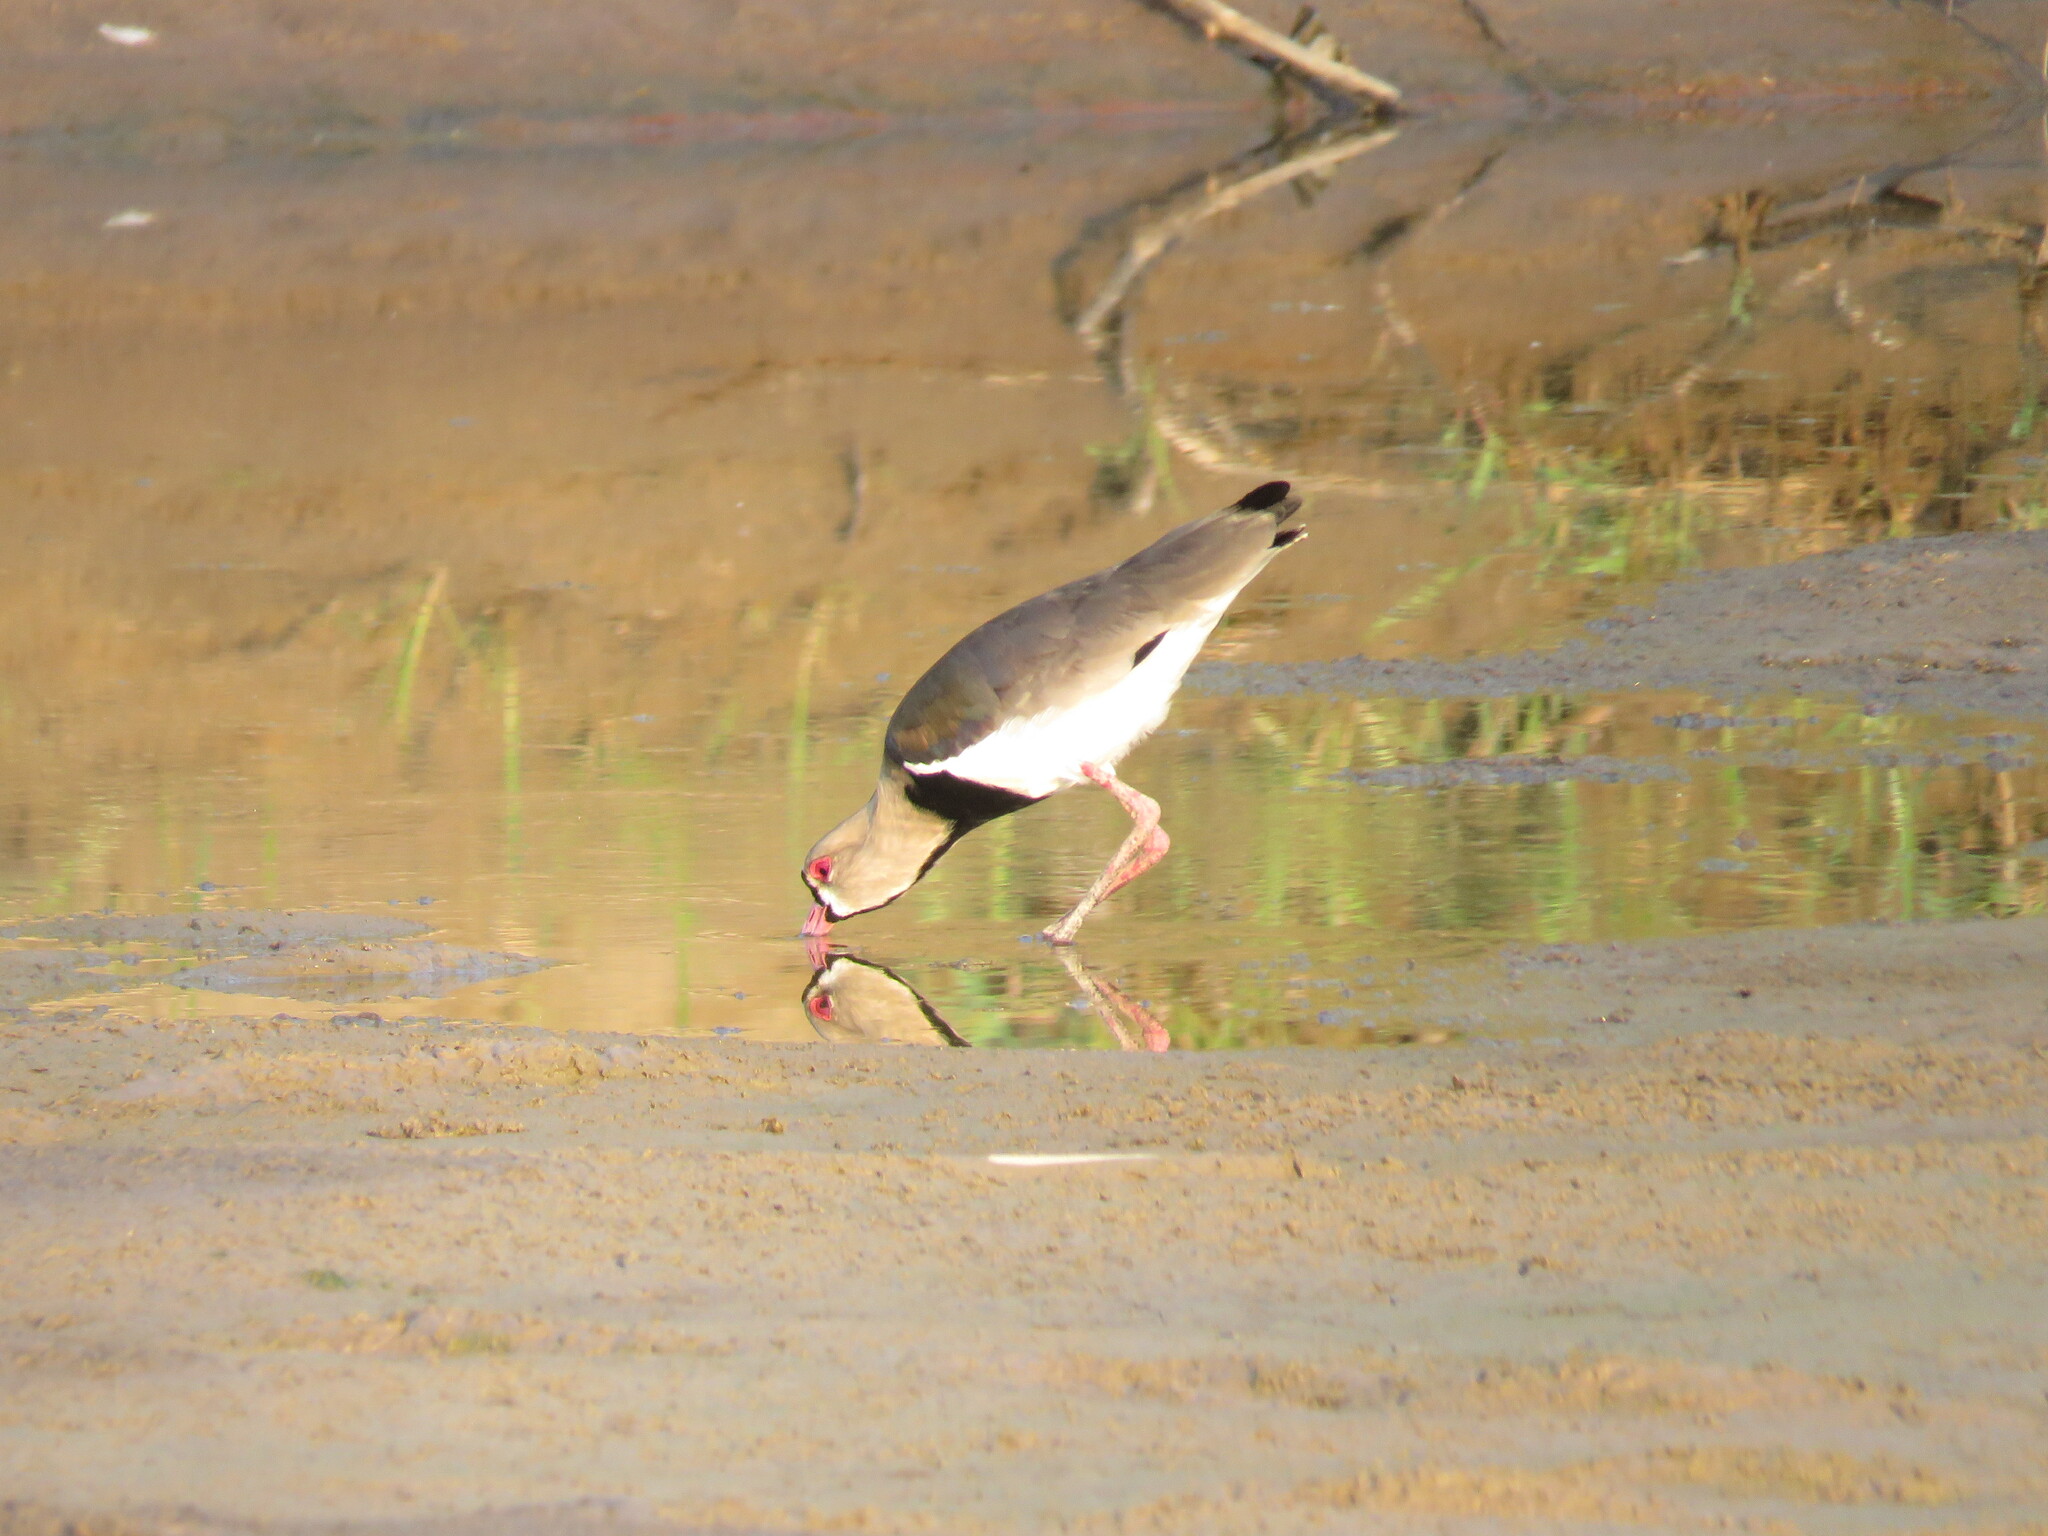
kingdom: Animalia
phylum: Chordata
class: Aves
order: Charadriiformes
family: Charadriidae
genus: Vanellus
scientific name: Vanellus chilensis
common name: Southern lapwing
